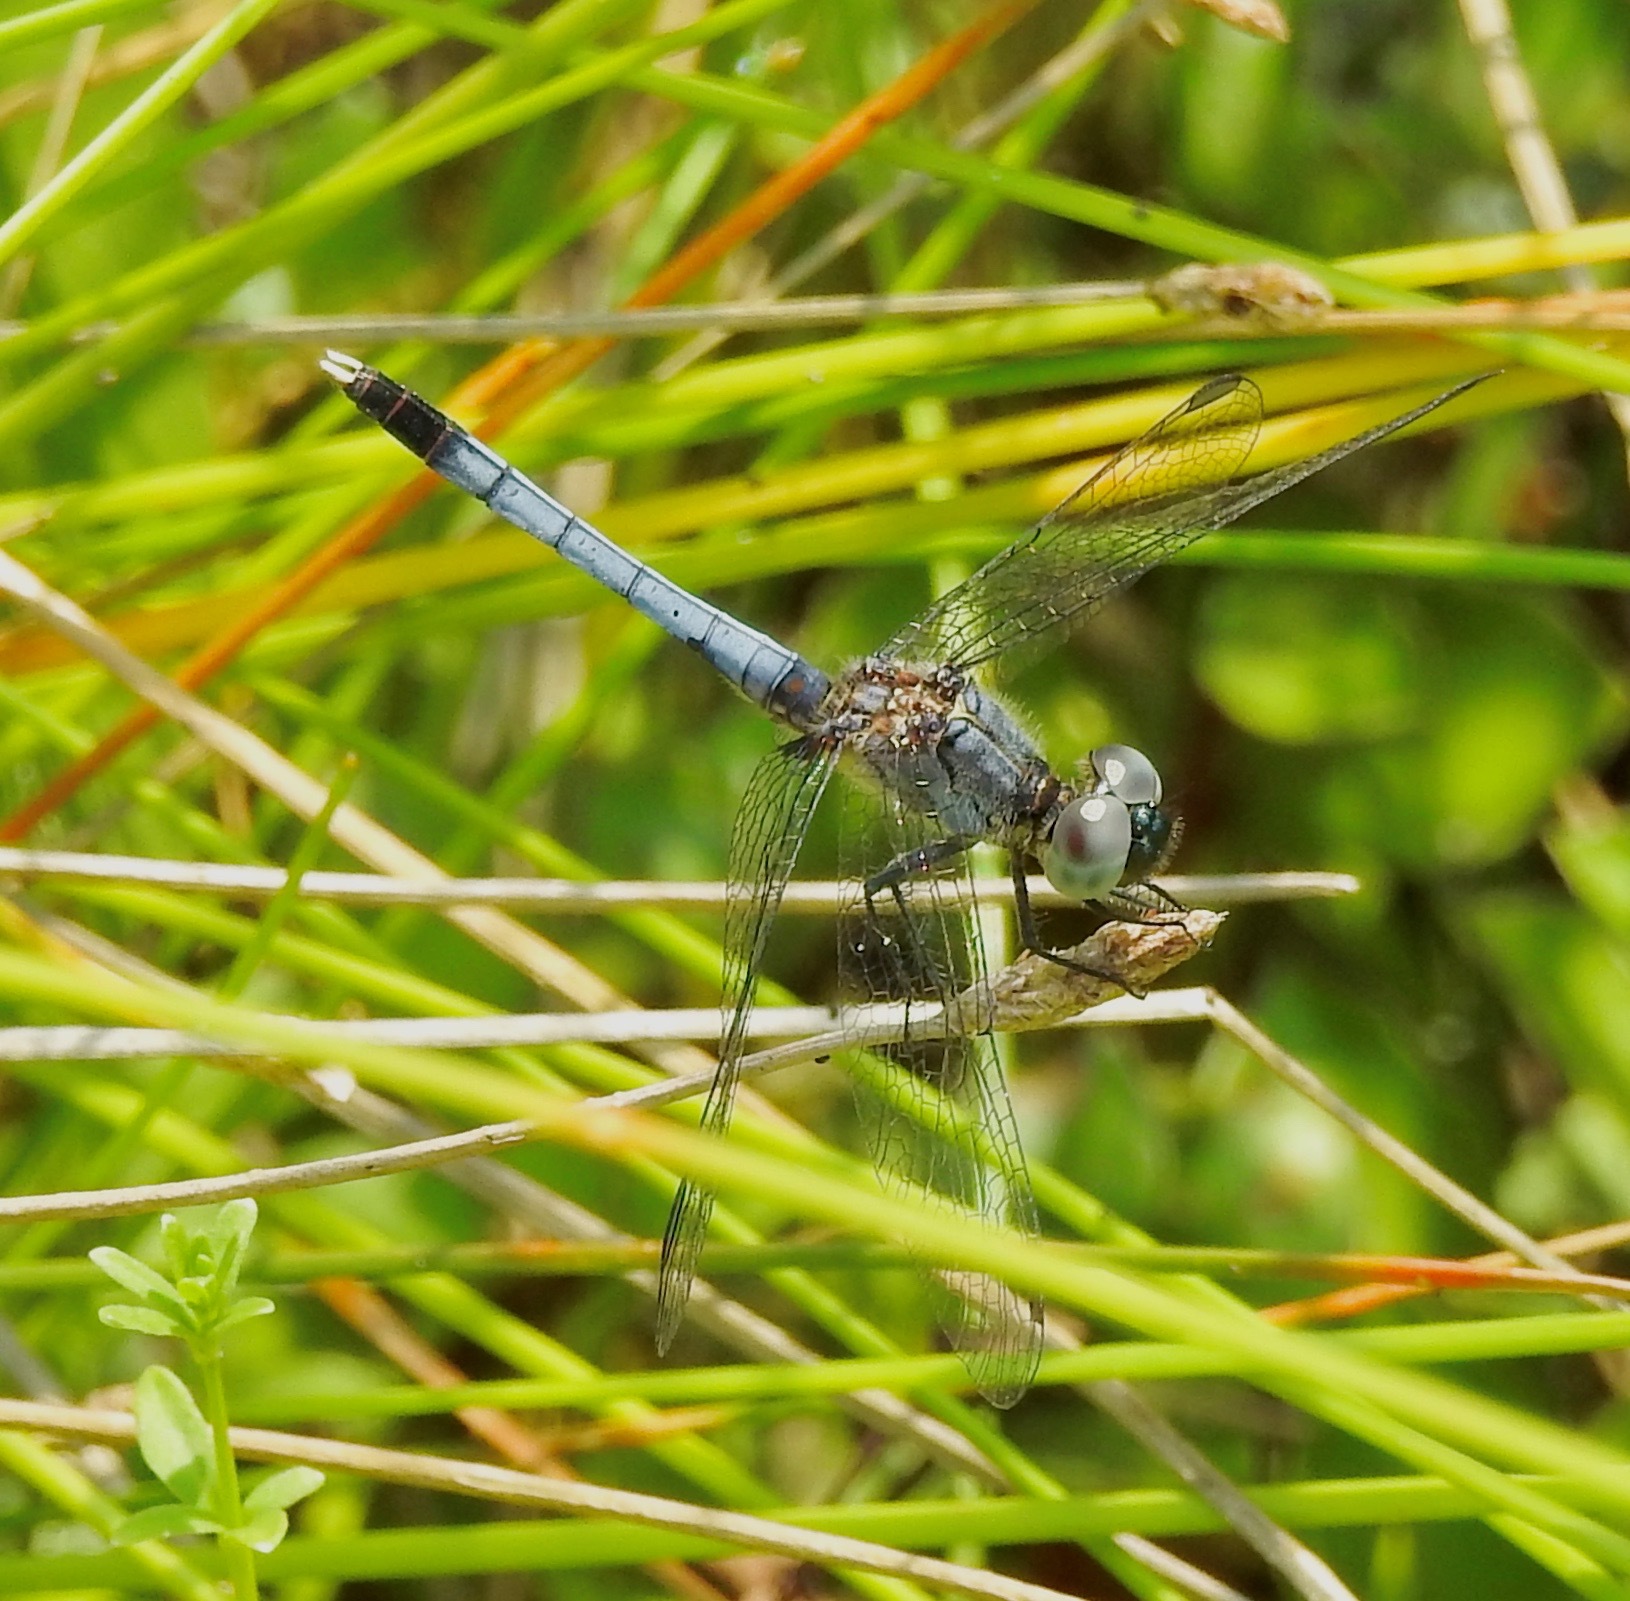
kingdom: Animalia
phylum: Arthropoda
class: Insecta
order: Odonata
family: Libellulidae
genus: Erythrodiplax
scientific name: Erythrodiplax minuscula
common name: Little blue dragonlet
